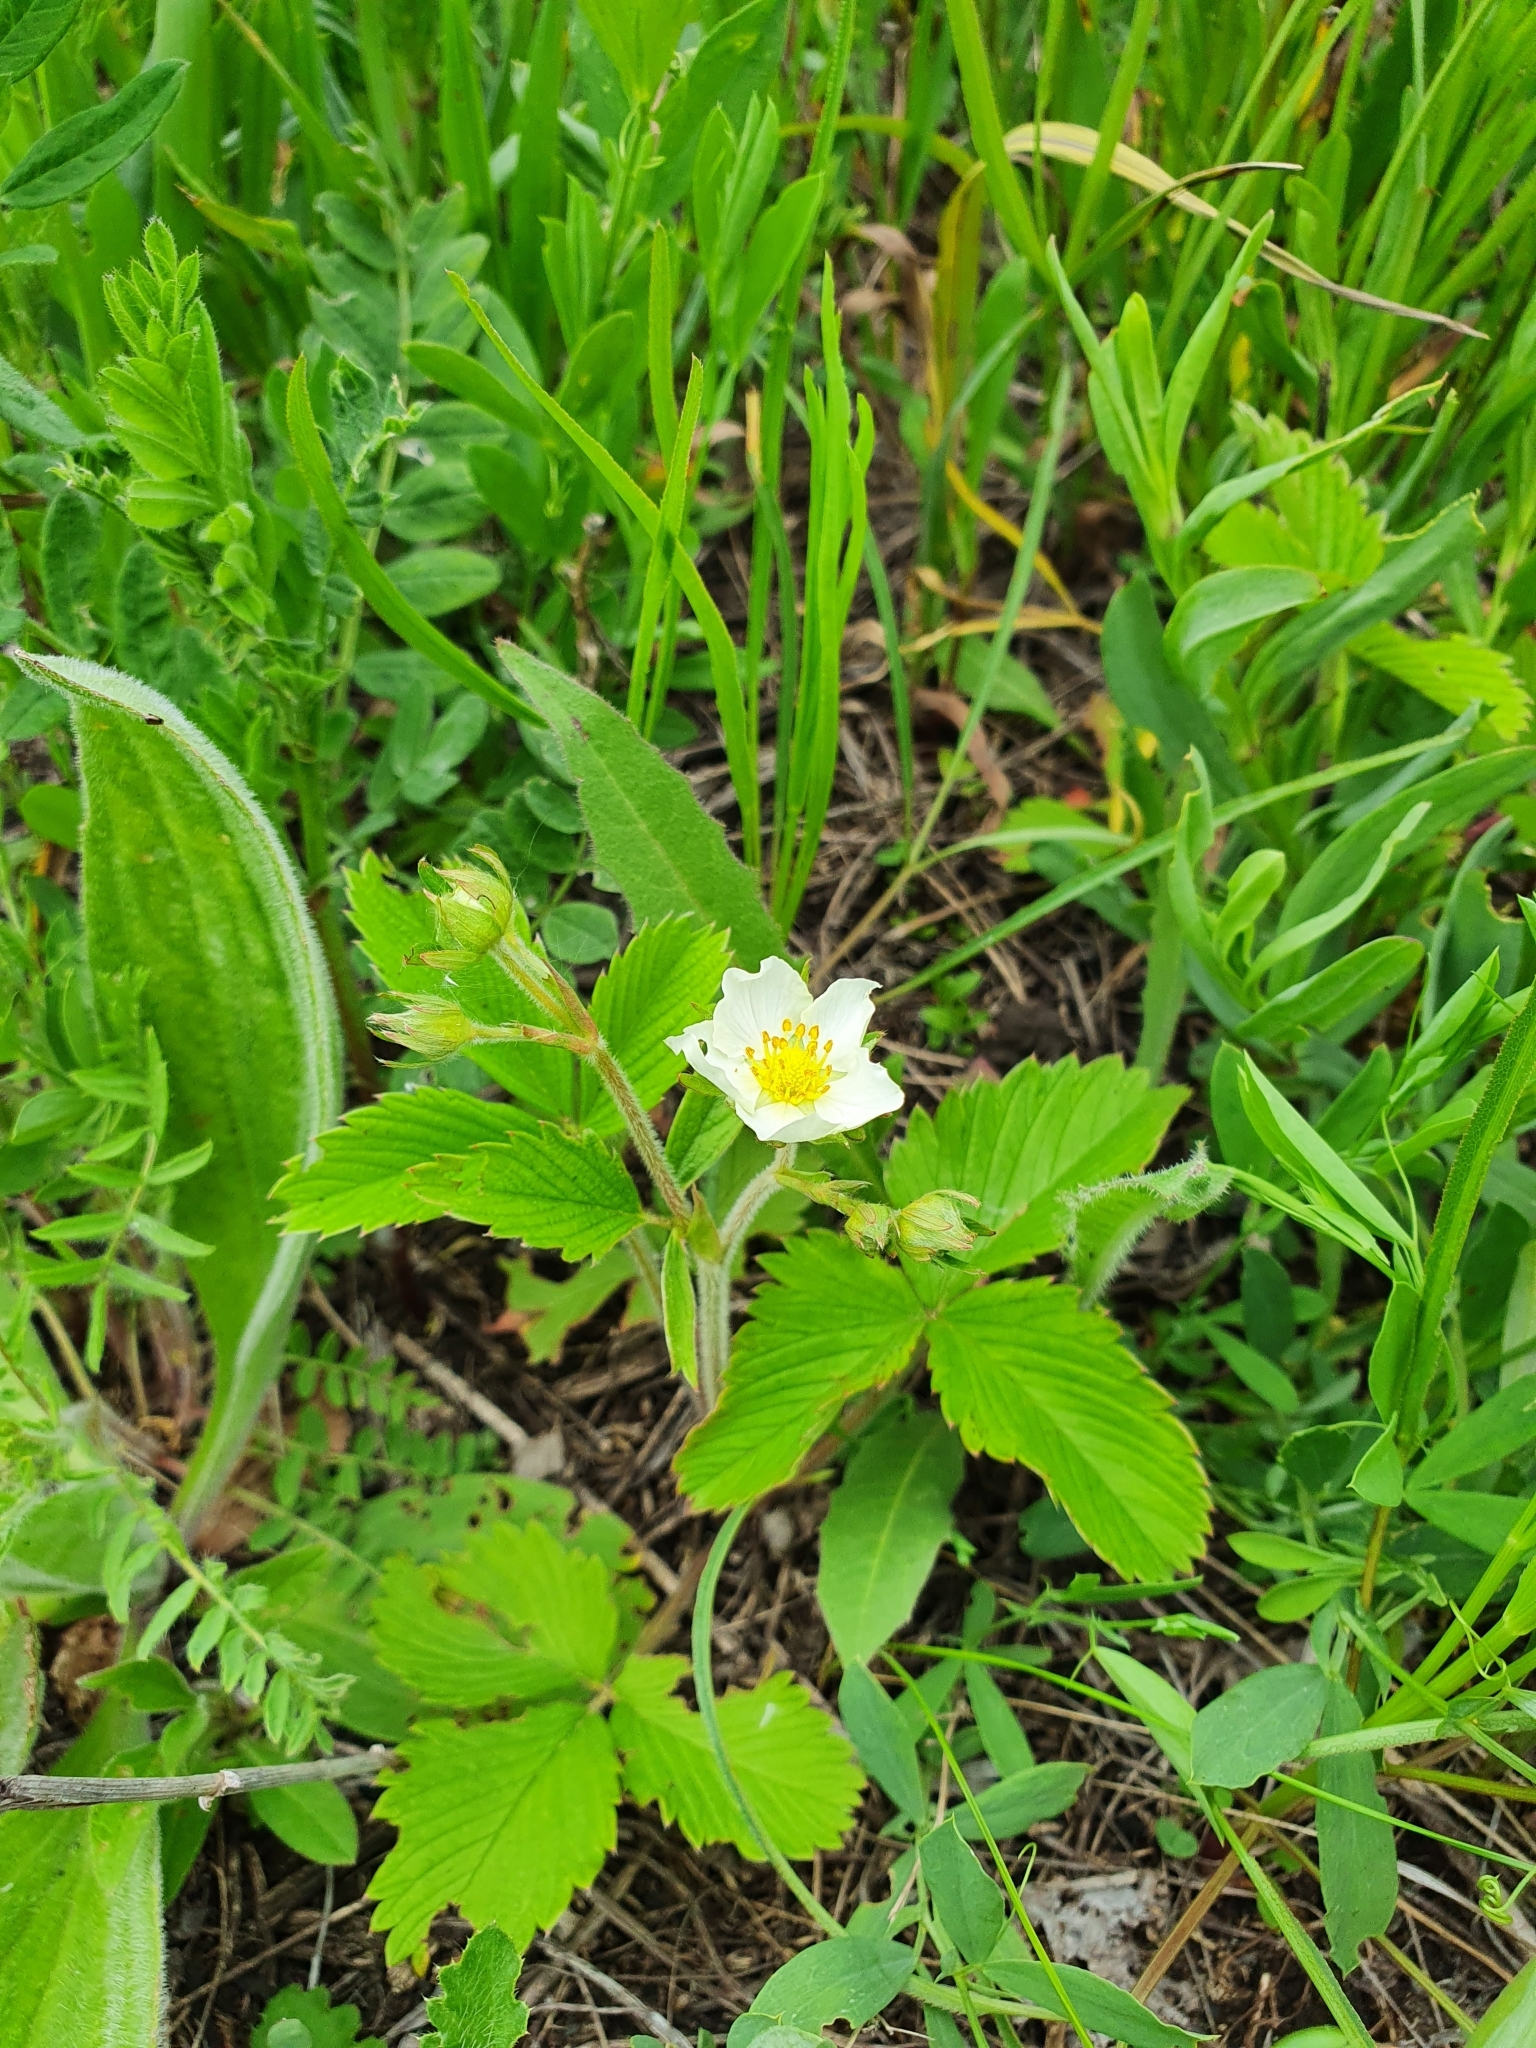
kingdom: Plantae
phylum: Tracheophyta
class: Magnoliopsida
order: Rosales
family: Rosaceae
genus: Fragaria
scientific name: Fragaria viridis
